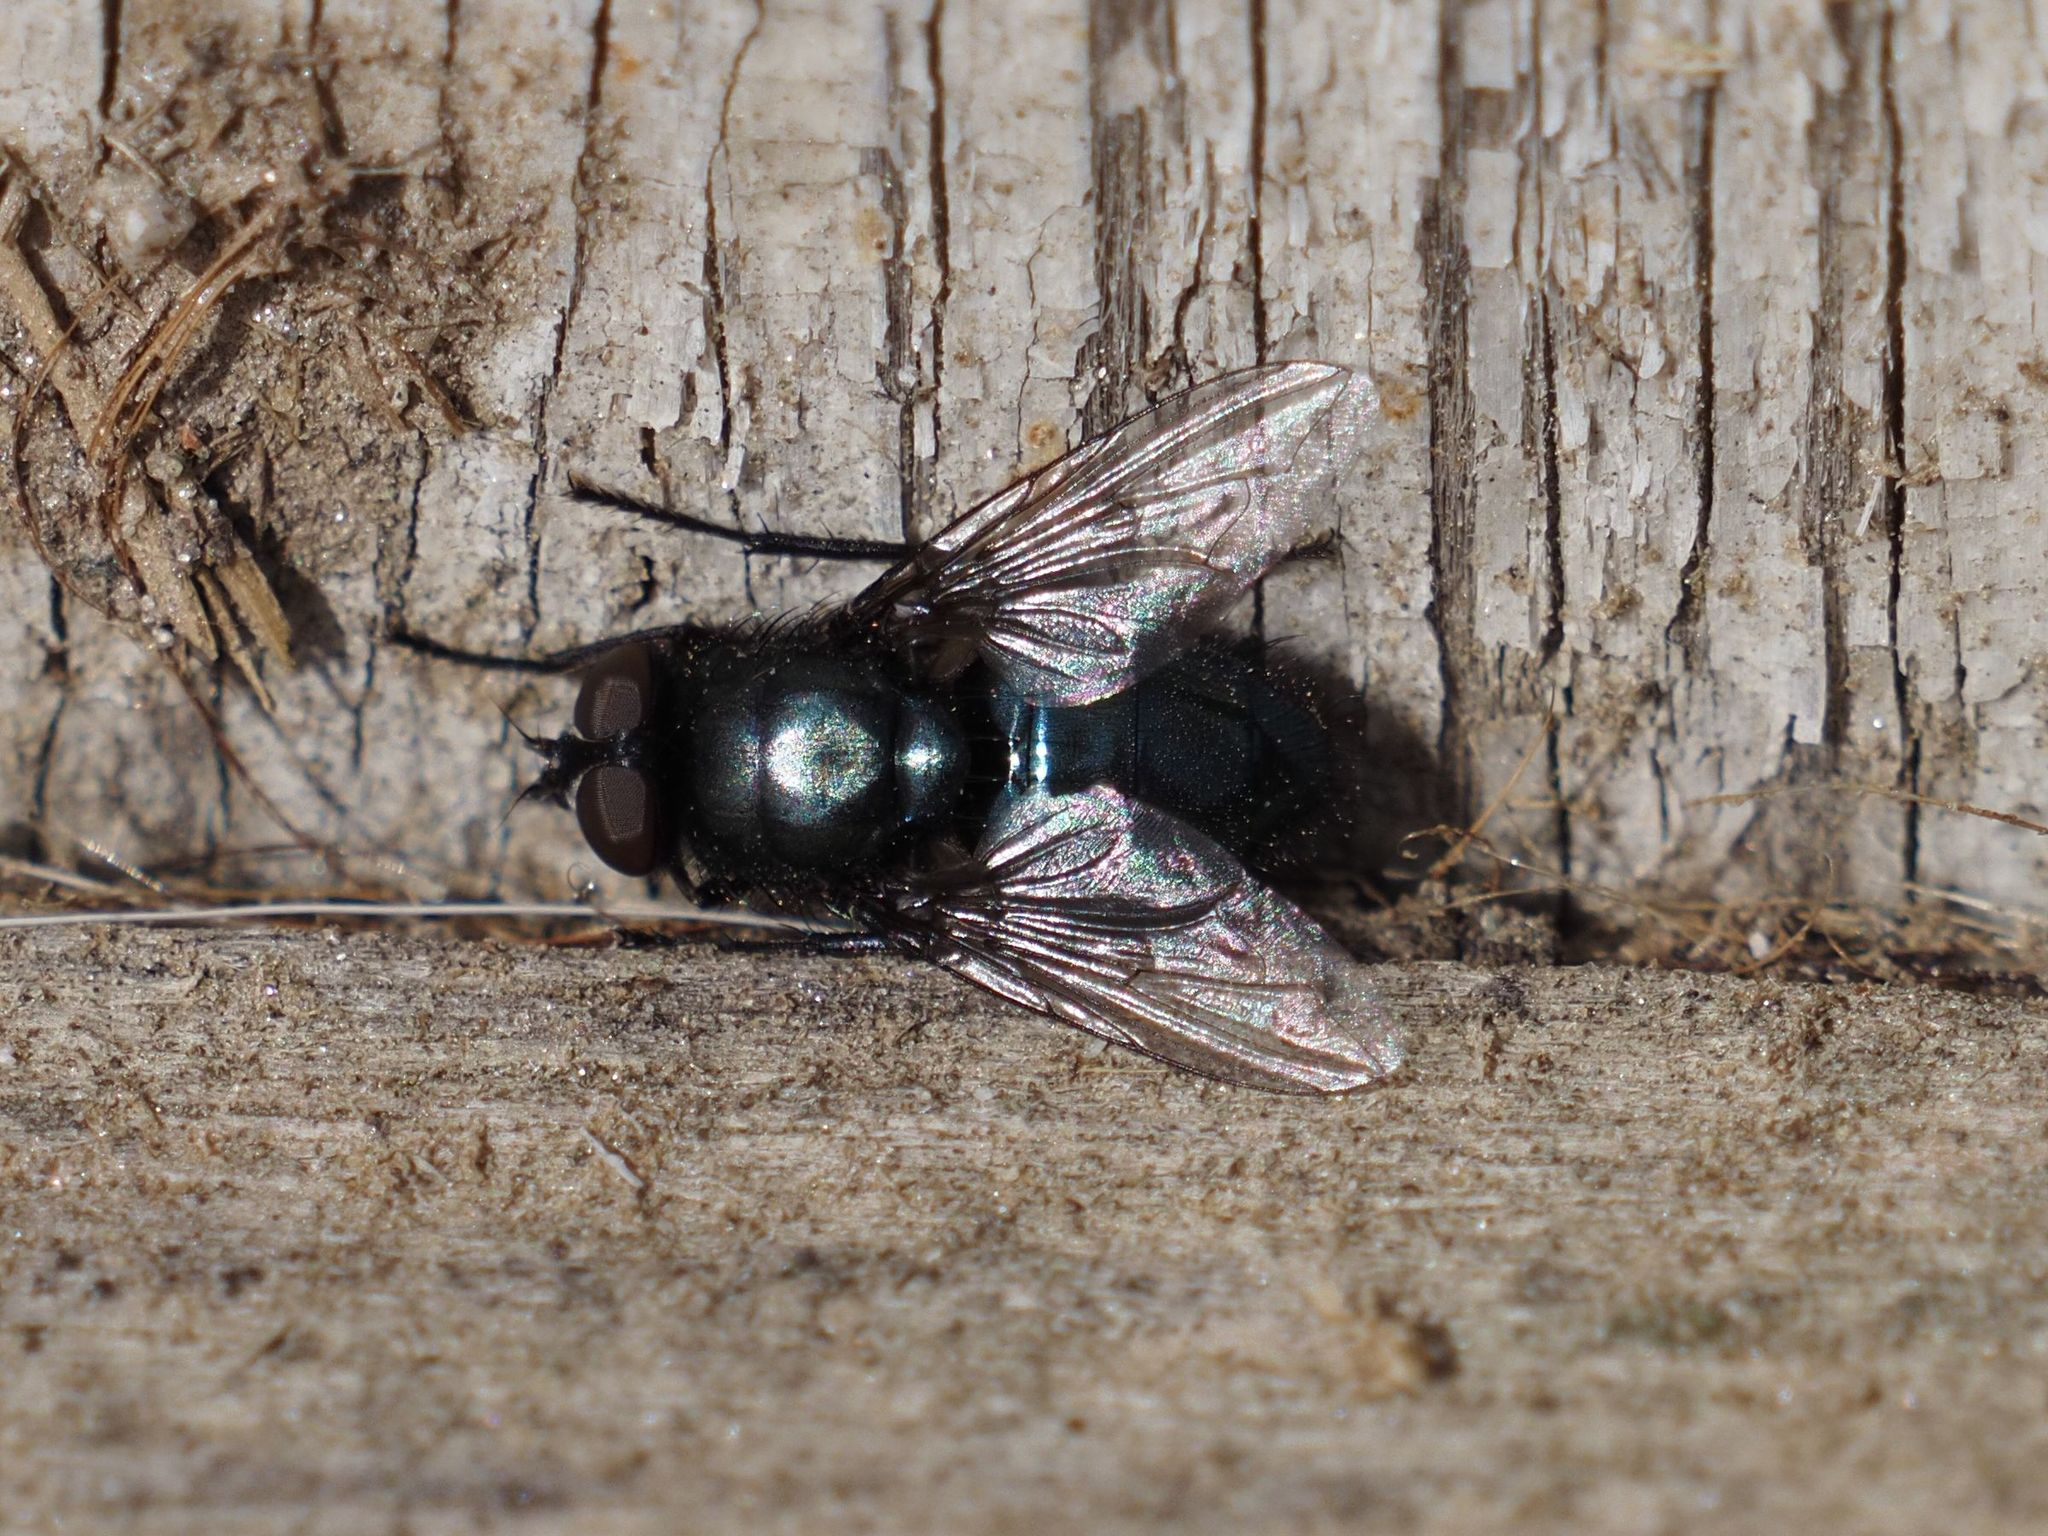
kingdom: Animalia
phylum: Arthropoda
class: Insecta
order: Diptera
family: Calliphoridae
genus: Protophormia
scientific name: Protophormia terraenovae
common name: Blackbottle
